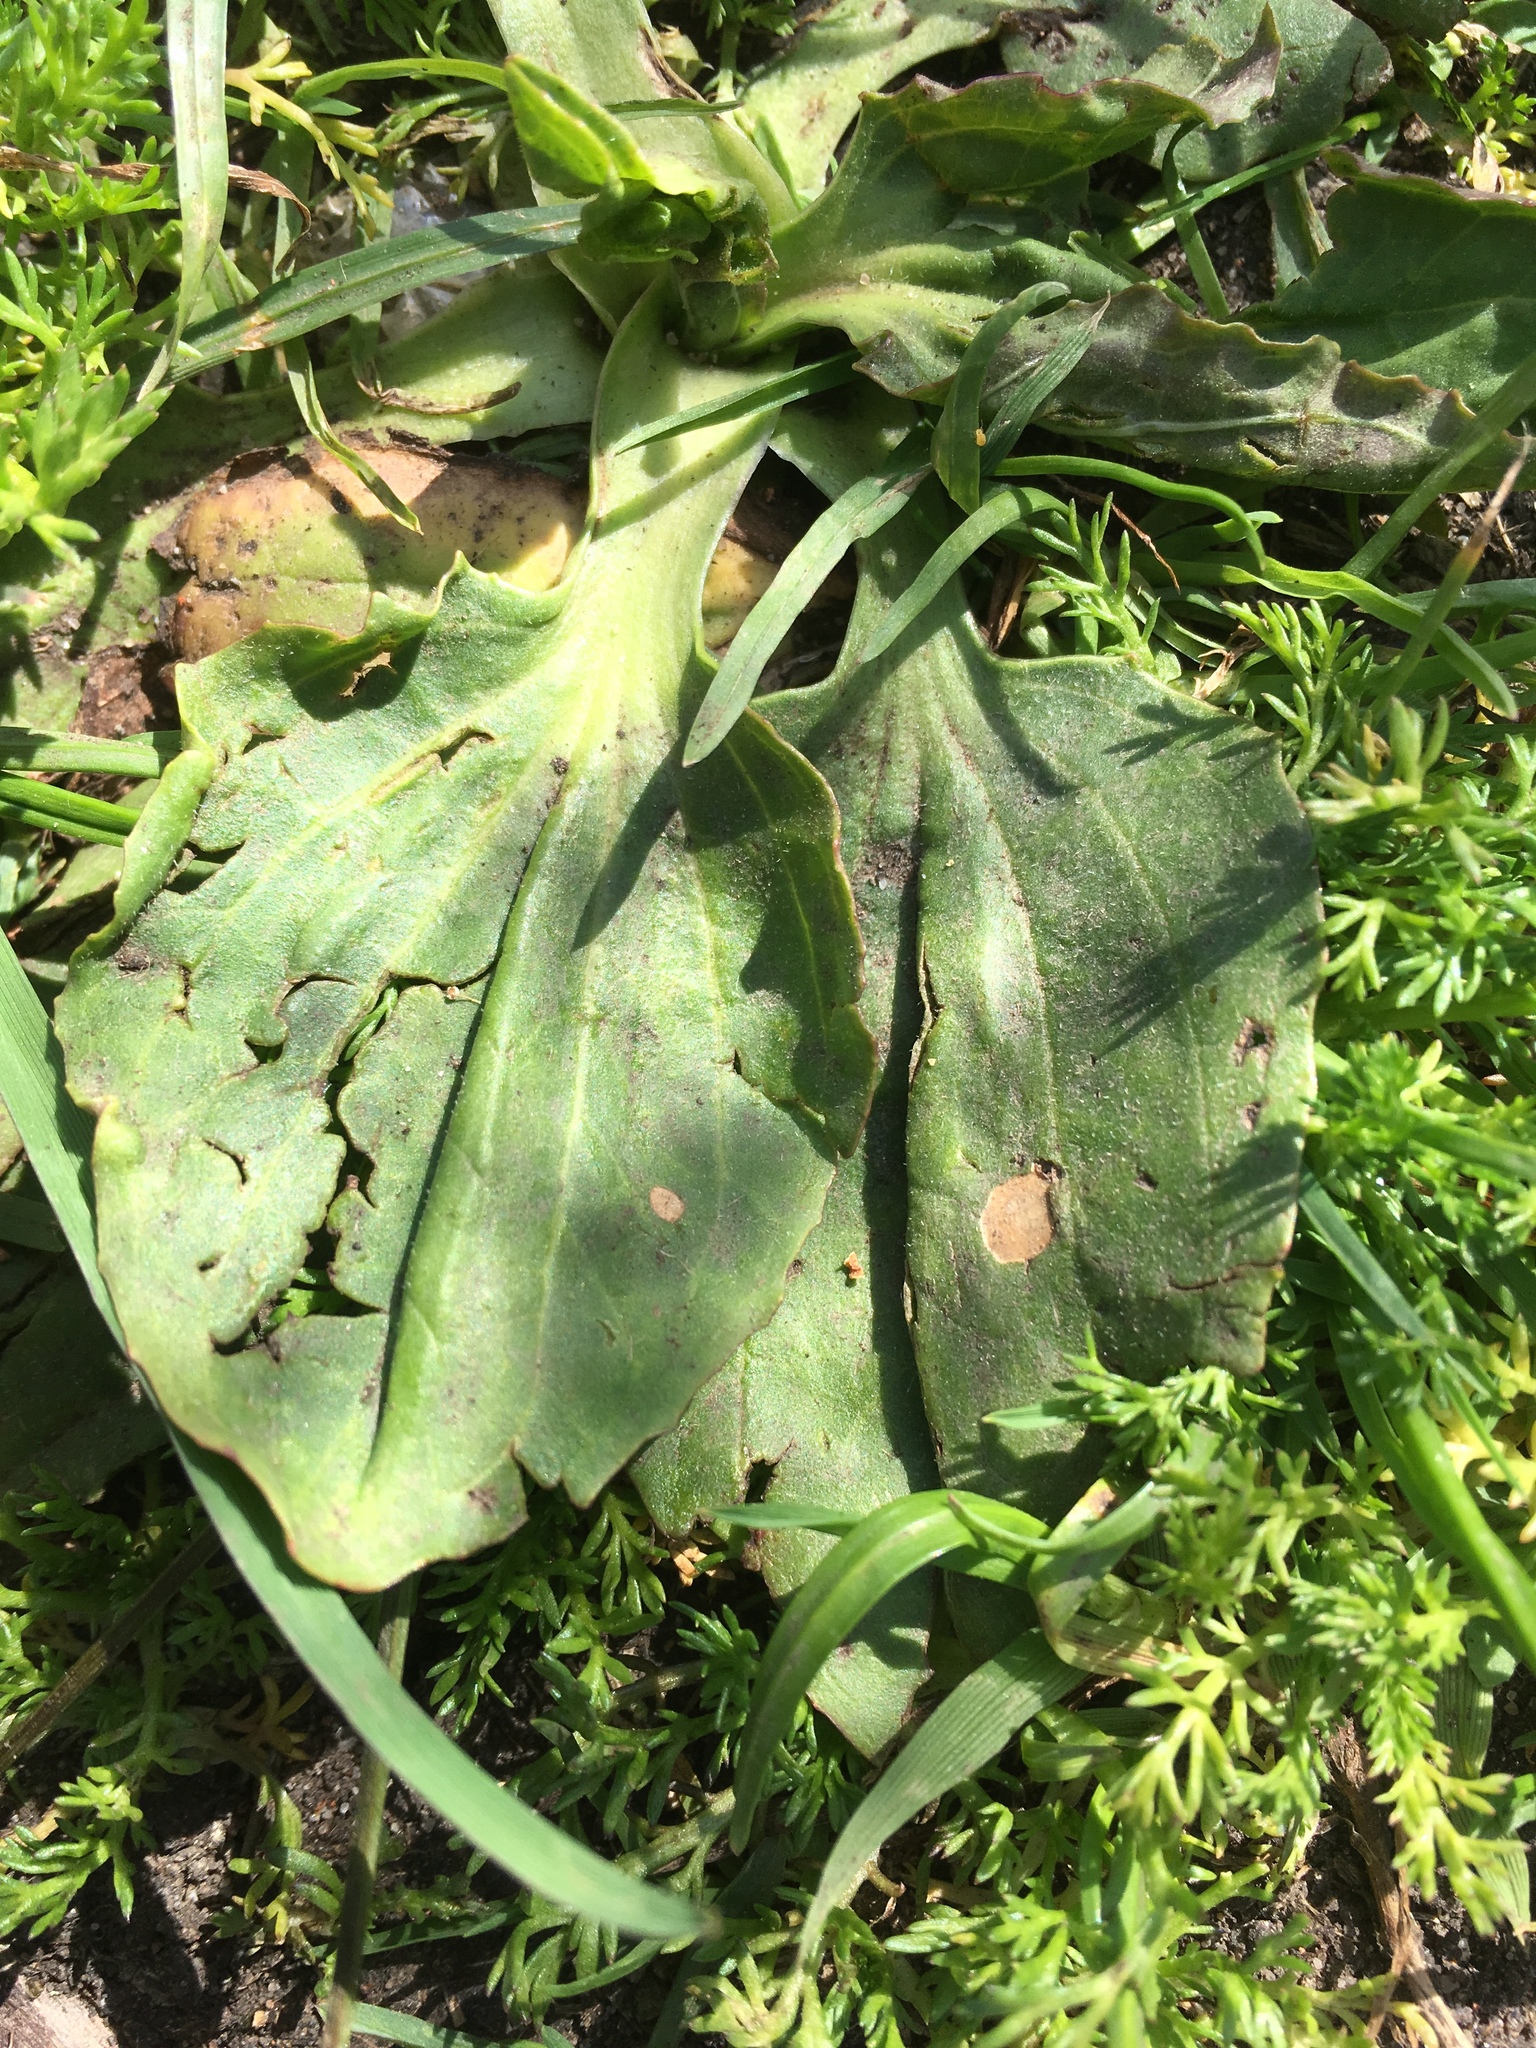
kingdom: Plantae
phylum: Tracheophyta
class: Magnoliopsida
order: Lamiales
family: Plantaginaceae
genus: Plantago
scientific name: Plantago major
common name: Common plantain
